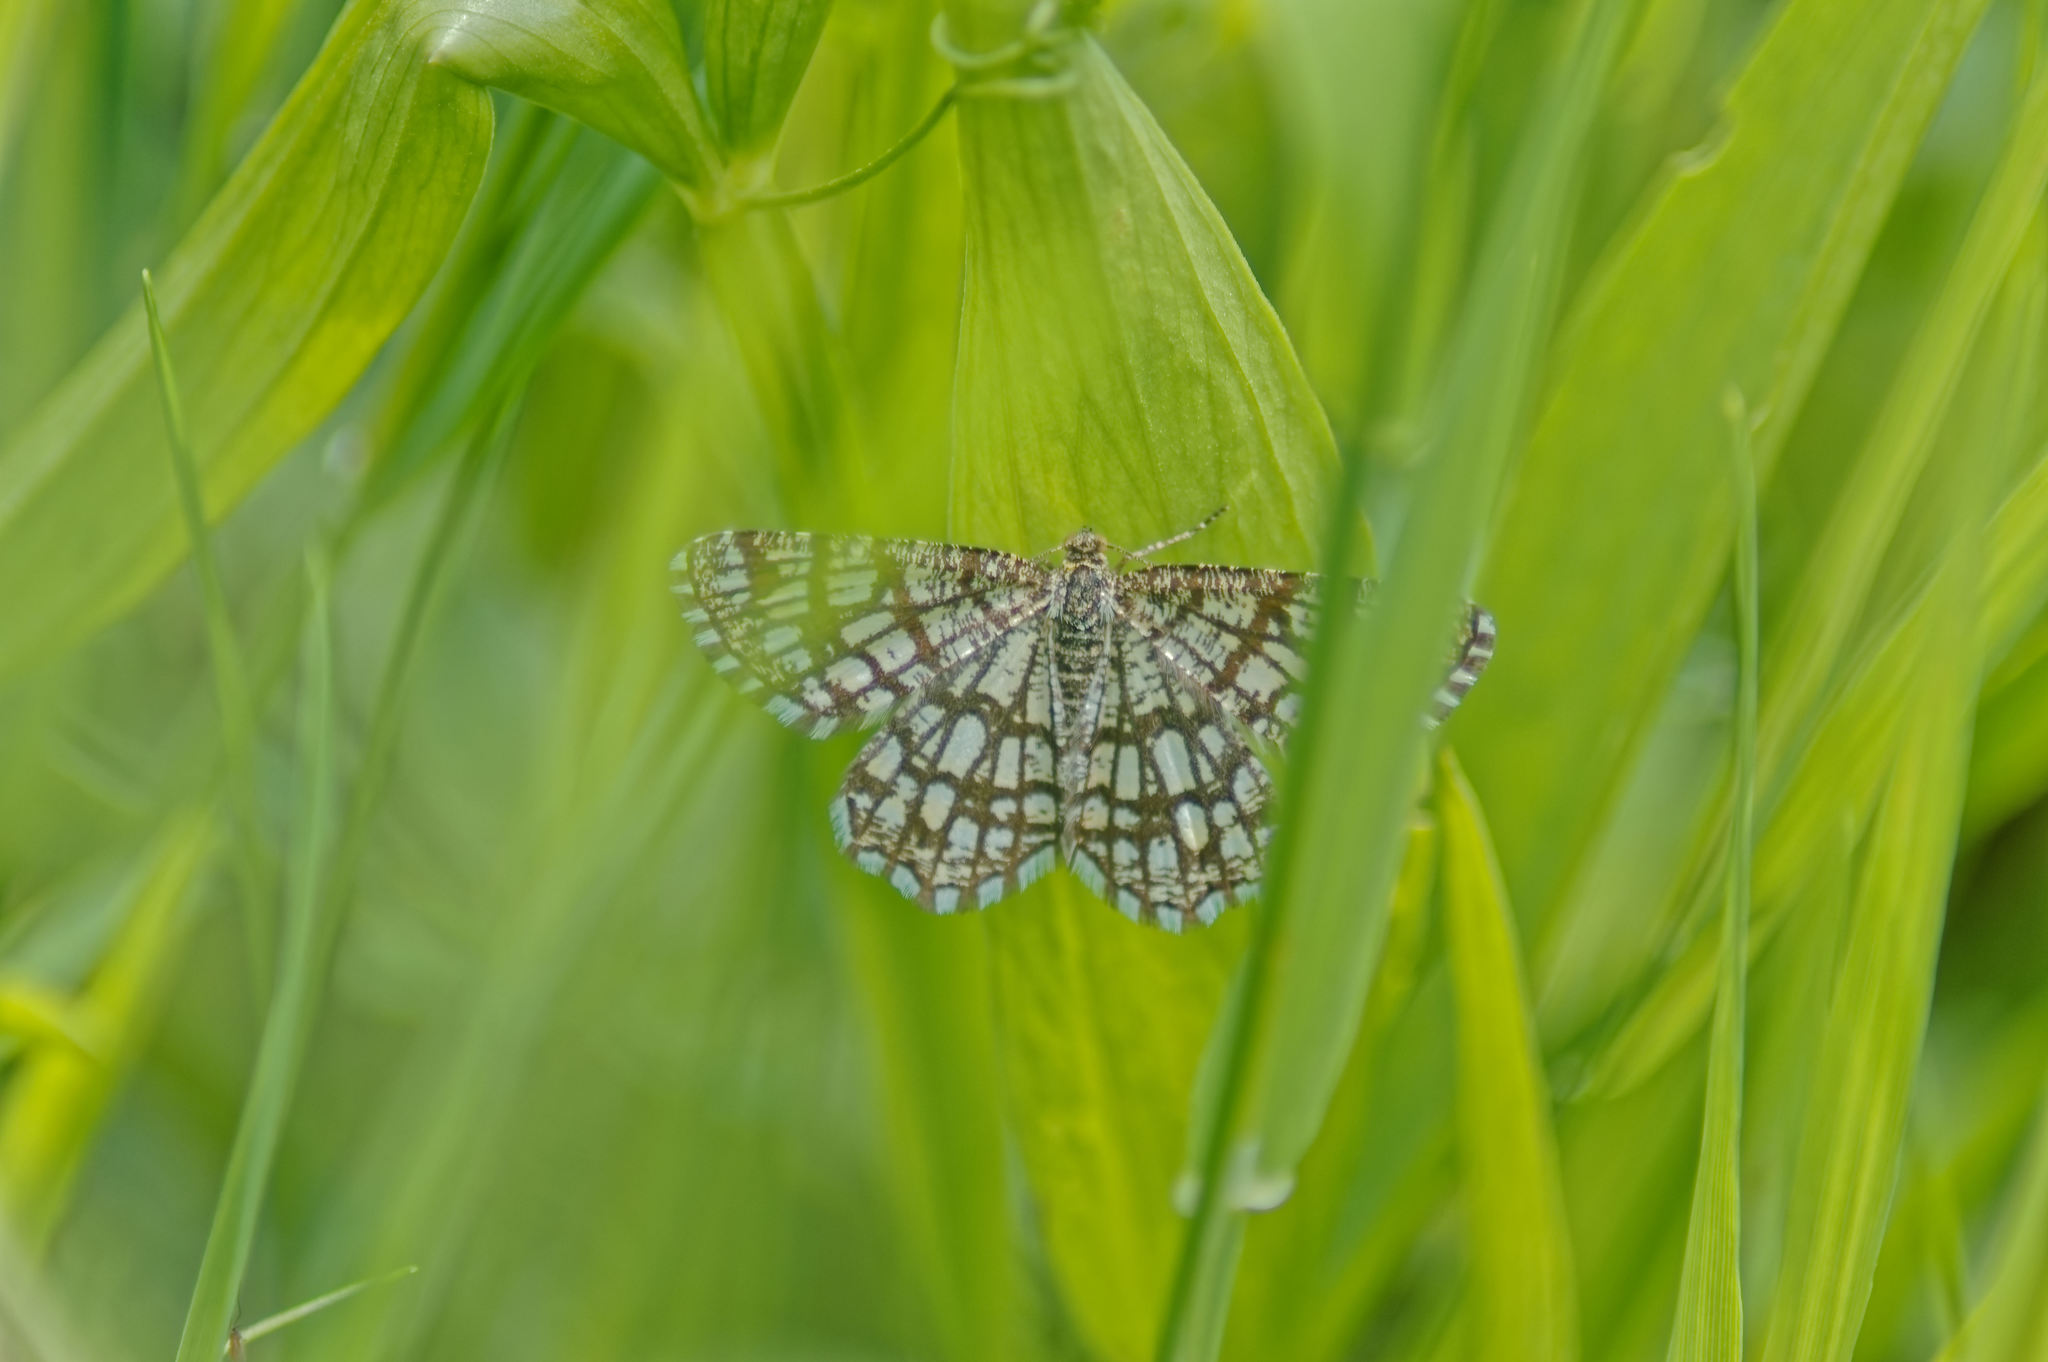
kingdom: Animalia
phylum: Arthropoda
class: Insecta
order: Lepidoptera
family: Geometridae
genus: Chiasmia
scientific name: Chiasmia clathrata
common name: Latticed heath
